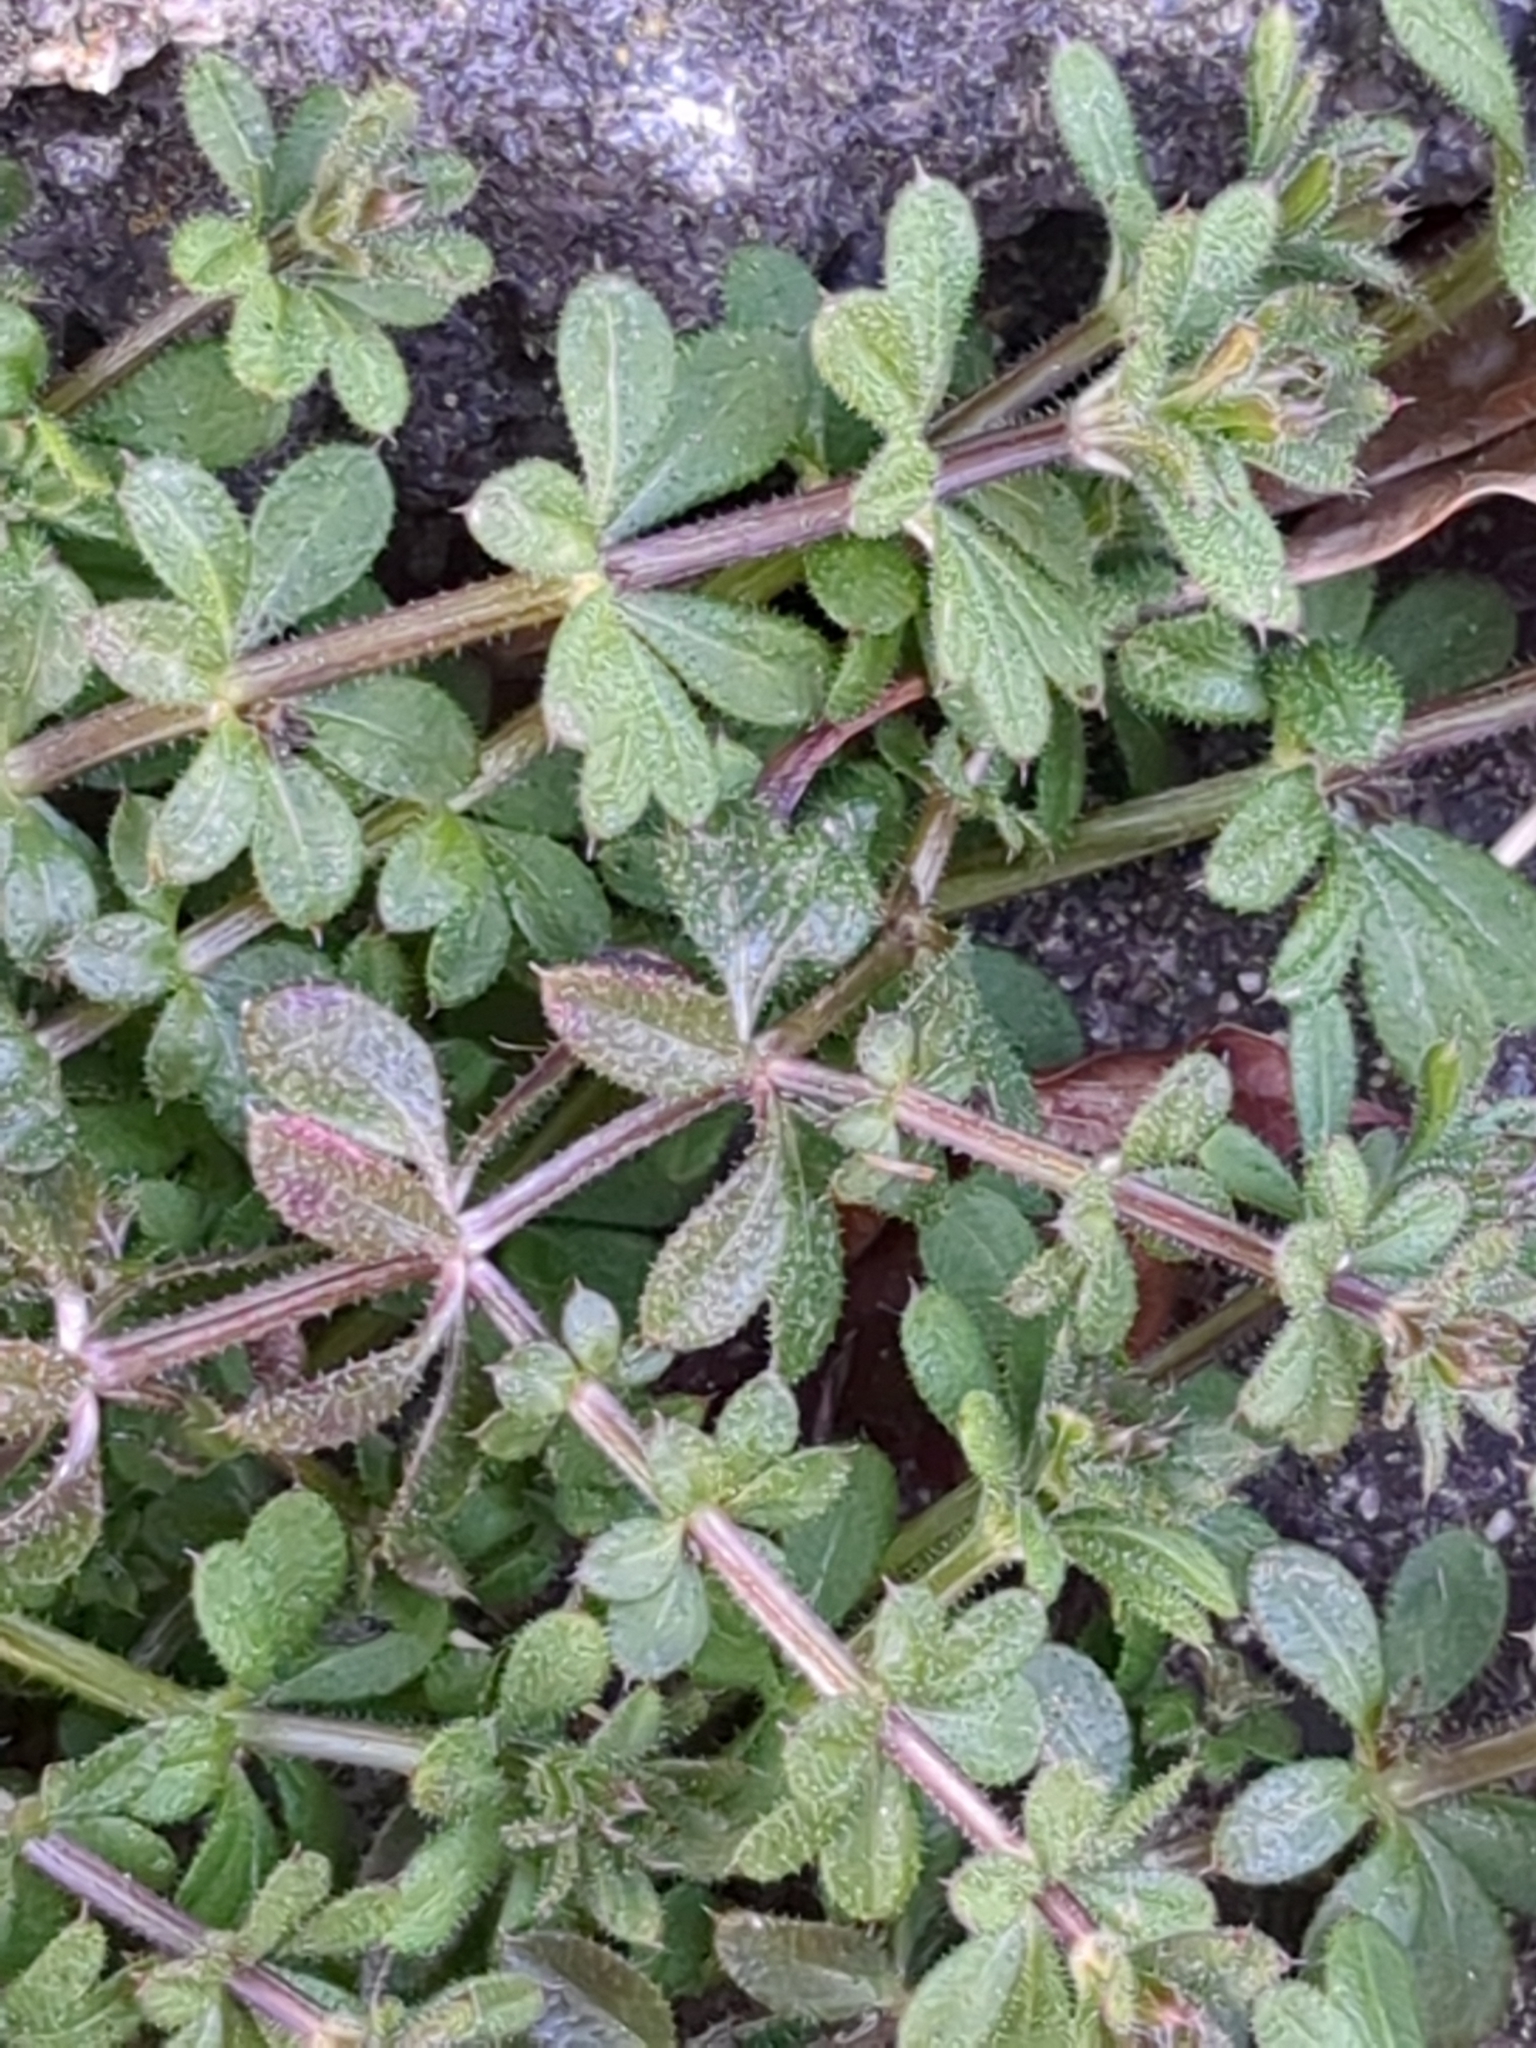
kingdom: Plantae
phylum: Tracheophyta
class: Magnoliopsida
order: Gentianales
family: Rubiaceae
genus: Galium
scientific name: Galium aparine
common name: Cleavers
